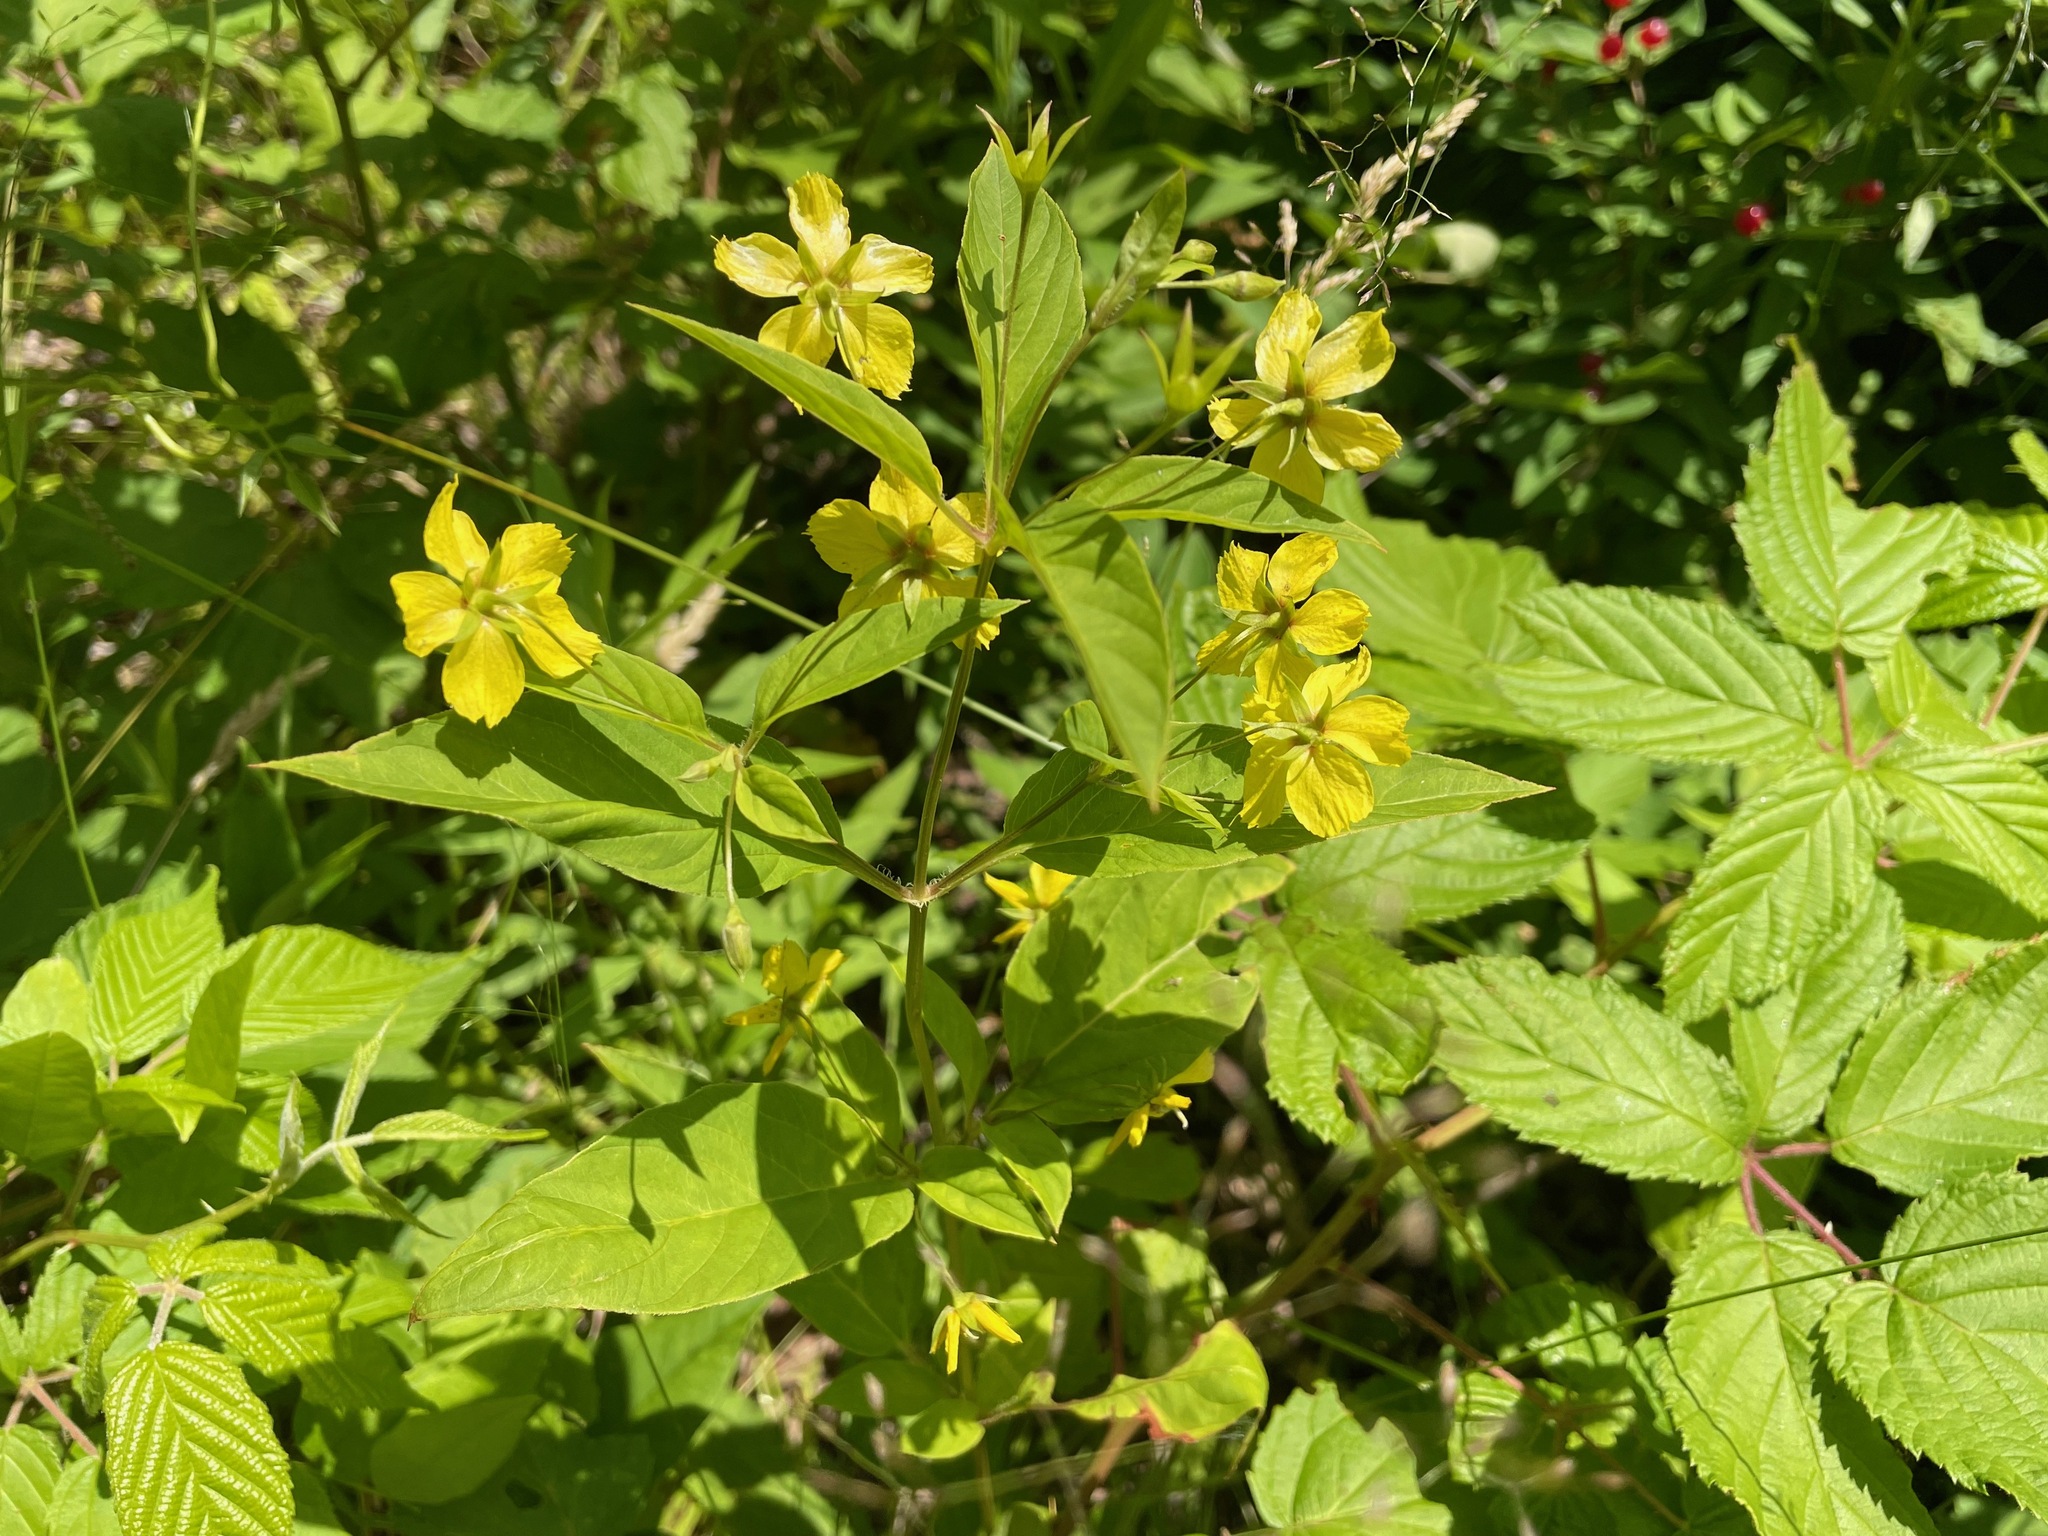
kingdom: Plantae
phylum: Tracheophyta
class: Magnoliopsida
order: Ericales
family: Primulaceae
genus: Lysimachia
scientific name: Lysimachia ciliata
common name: Fringed loosestrife
